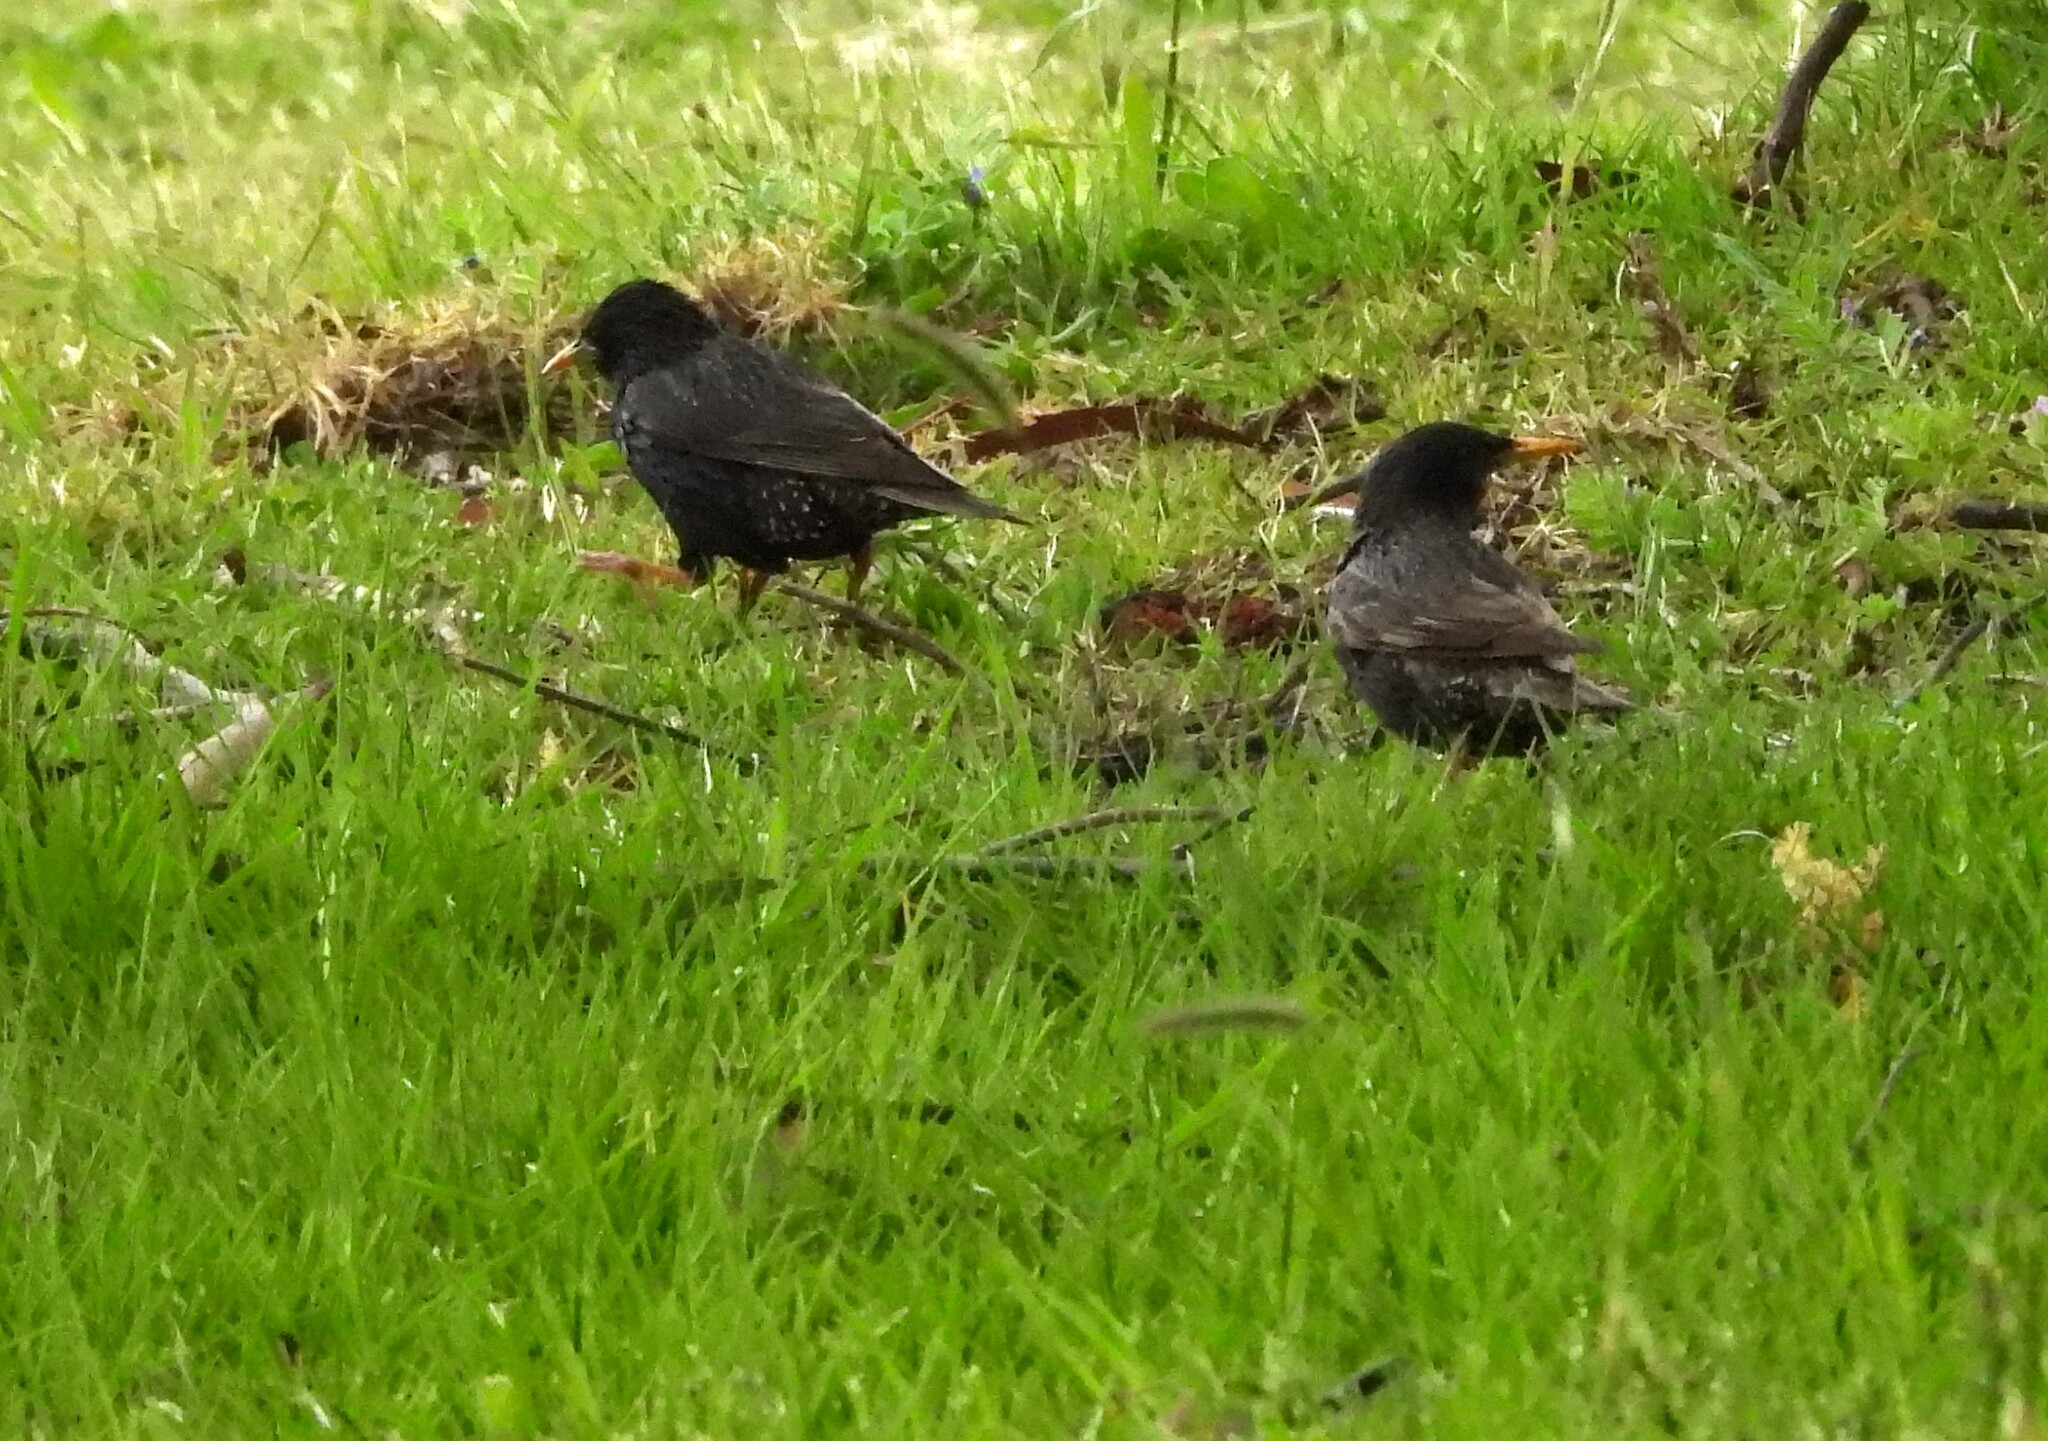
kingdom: Animalia
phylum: Chordata
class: Aves
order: Passeriformes
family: Sturnidae
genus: Sturnus
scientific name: Sturnus vulgaris
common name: Common starling
